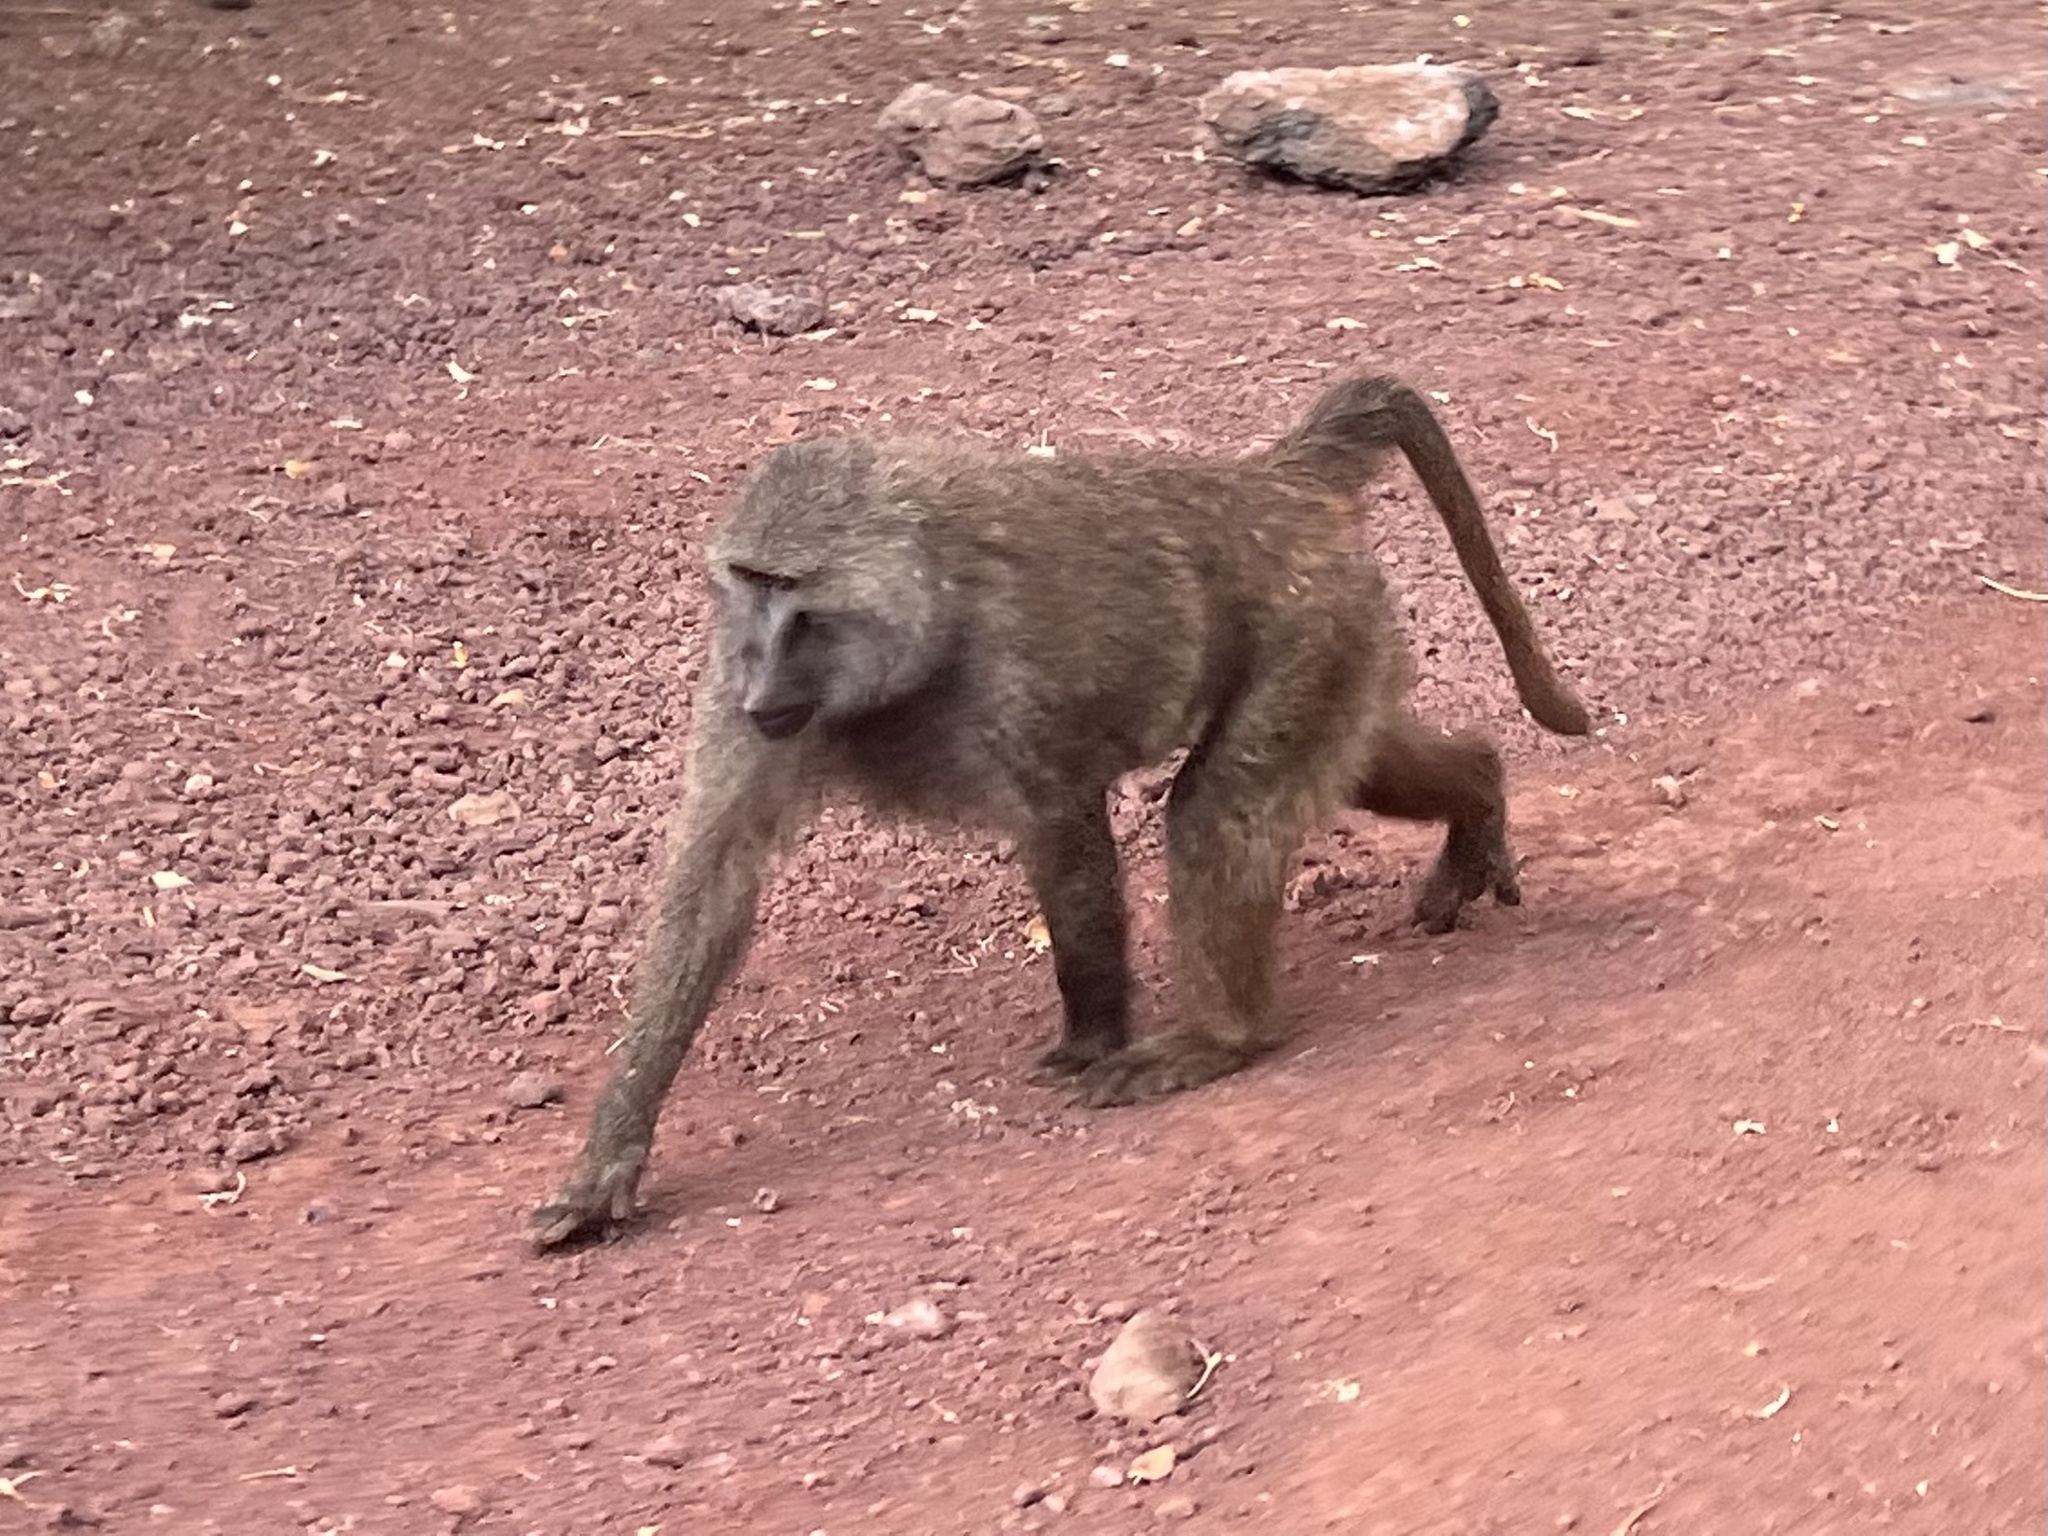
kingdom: Animalia
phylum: Chordata
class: Mammalia
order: Primates
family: Cercopithecidae
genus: Papio
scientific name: Papio anubis
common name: Olive baboon
